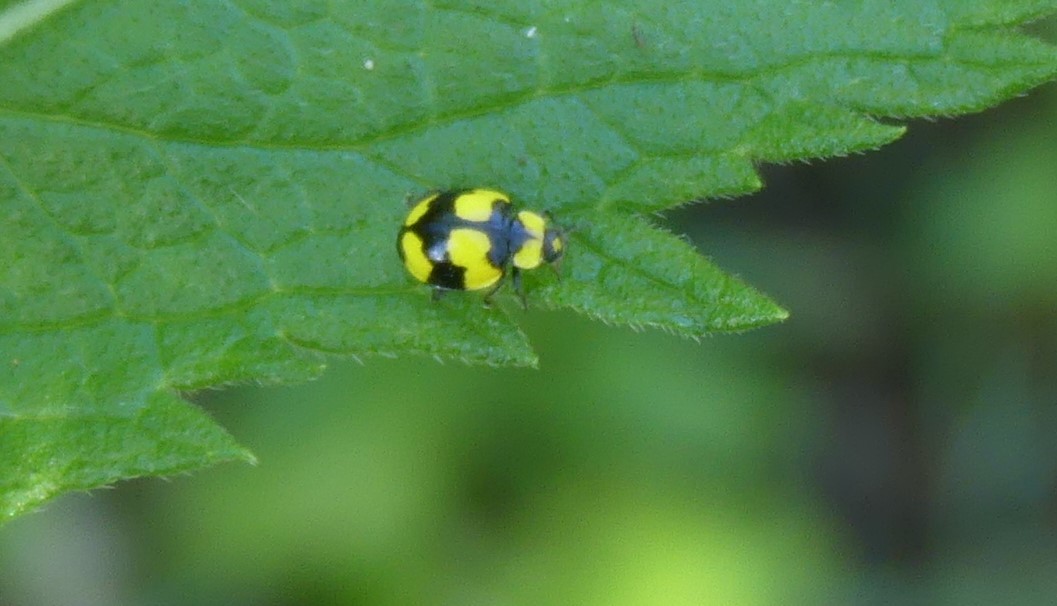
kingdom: Animalia
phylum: Arthropoda
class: Insecta
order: Coleoptera
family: Coccinellidae
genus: Illeis
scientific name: Illeis galbula
